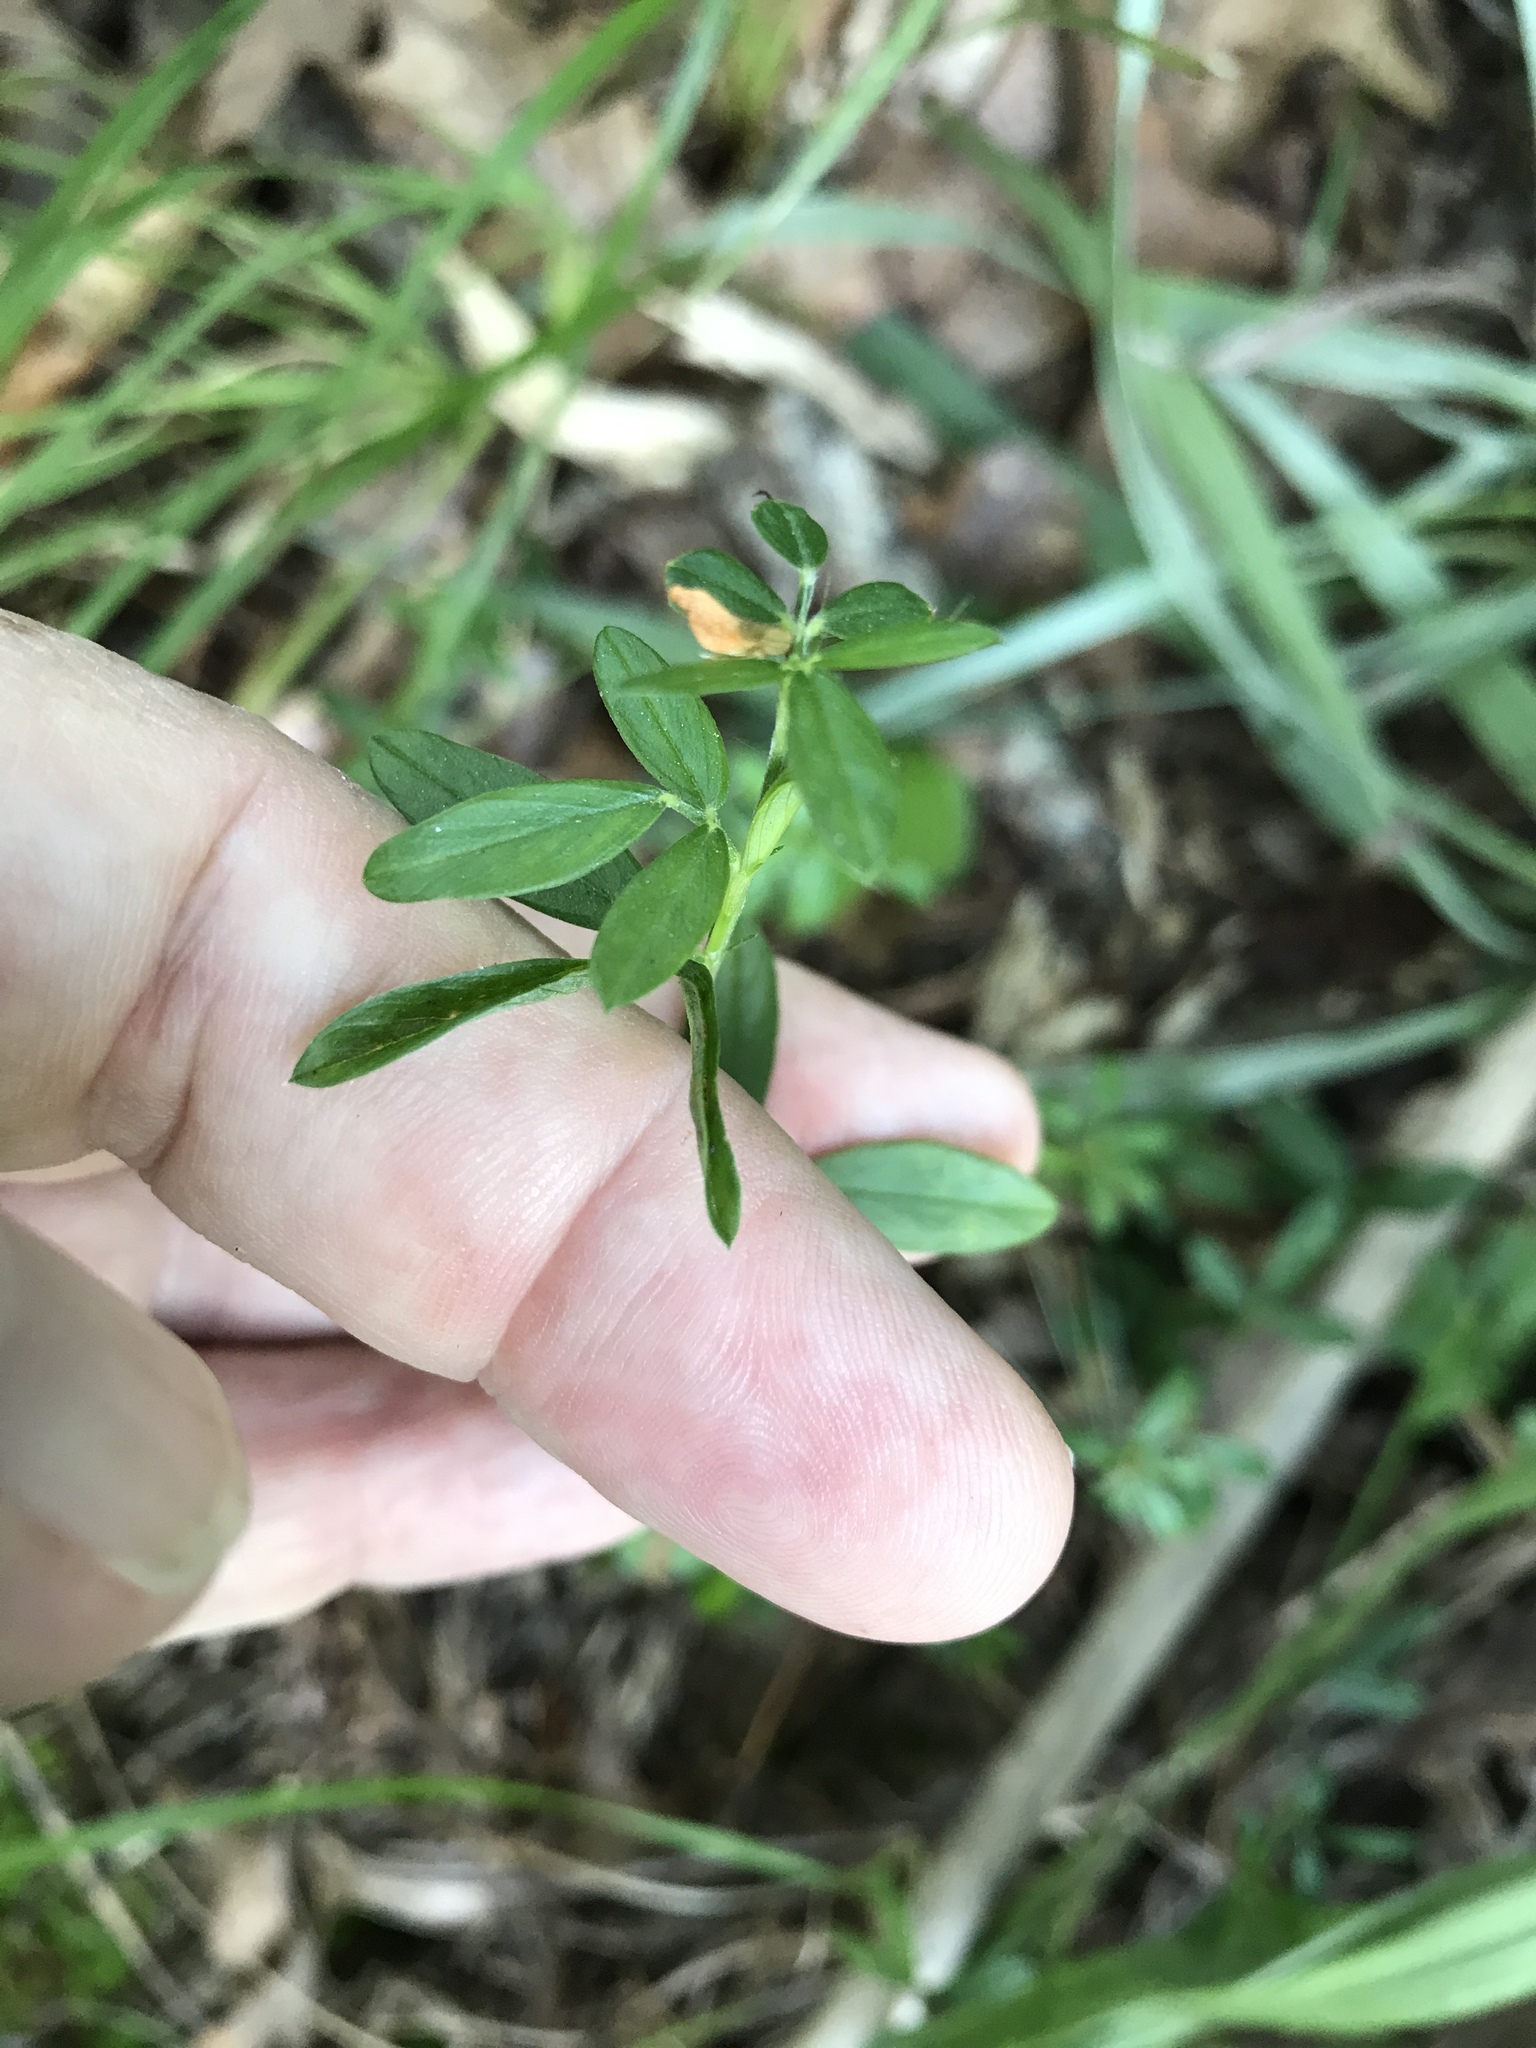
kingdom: Plantae
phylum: Tracheophyta
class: Magnoliopsida
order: Fabales
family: Fabaceae
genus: Stylosanthes
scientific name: Stylosanthes biflora
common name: Two-flower pencil-flower
